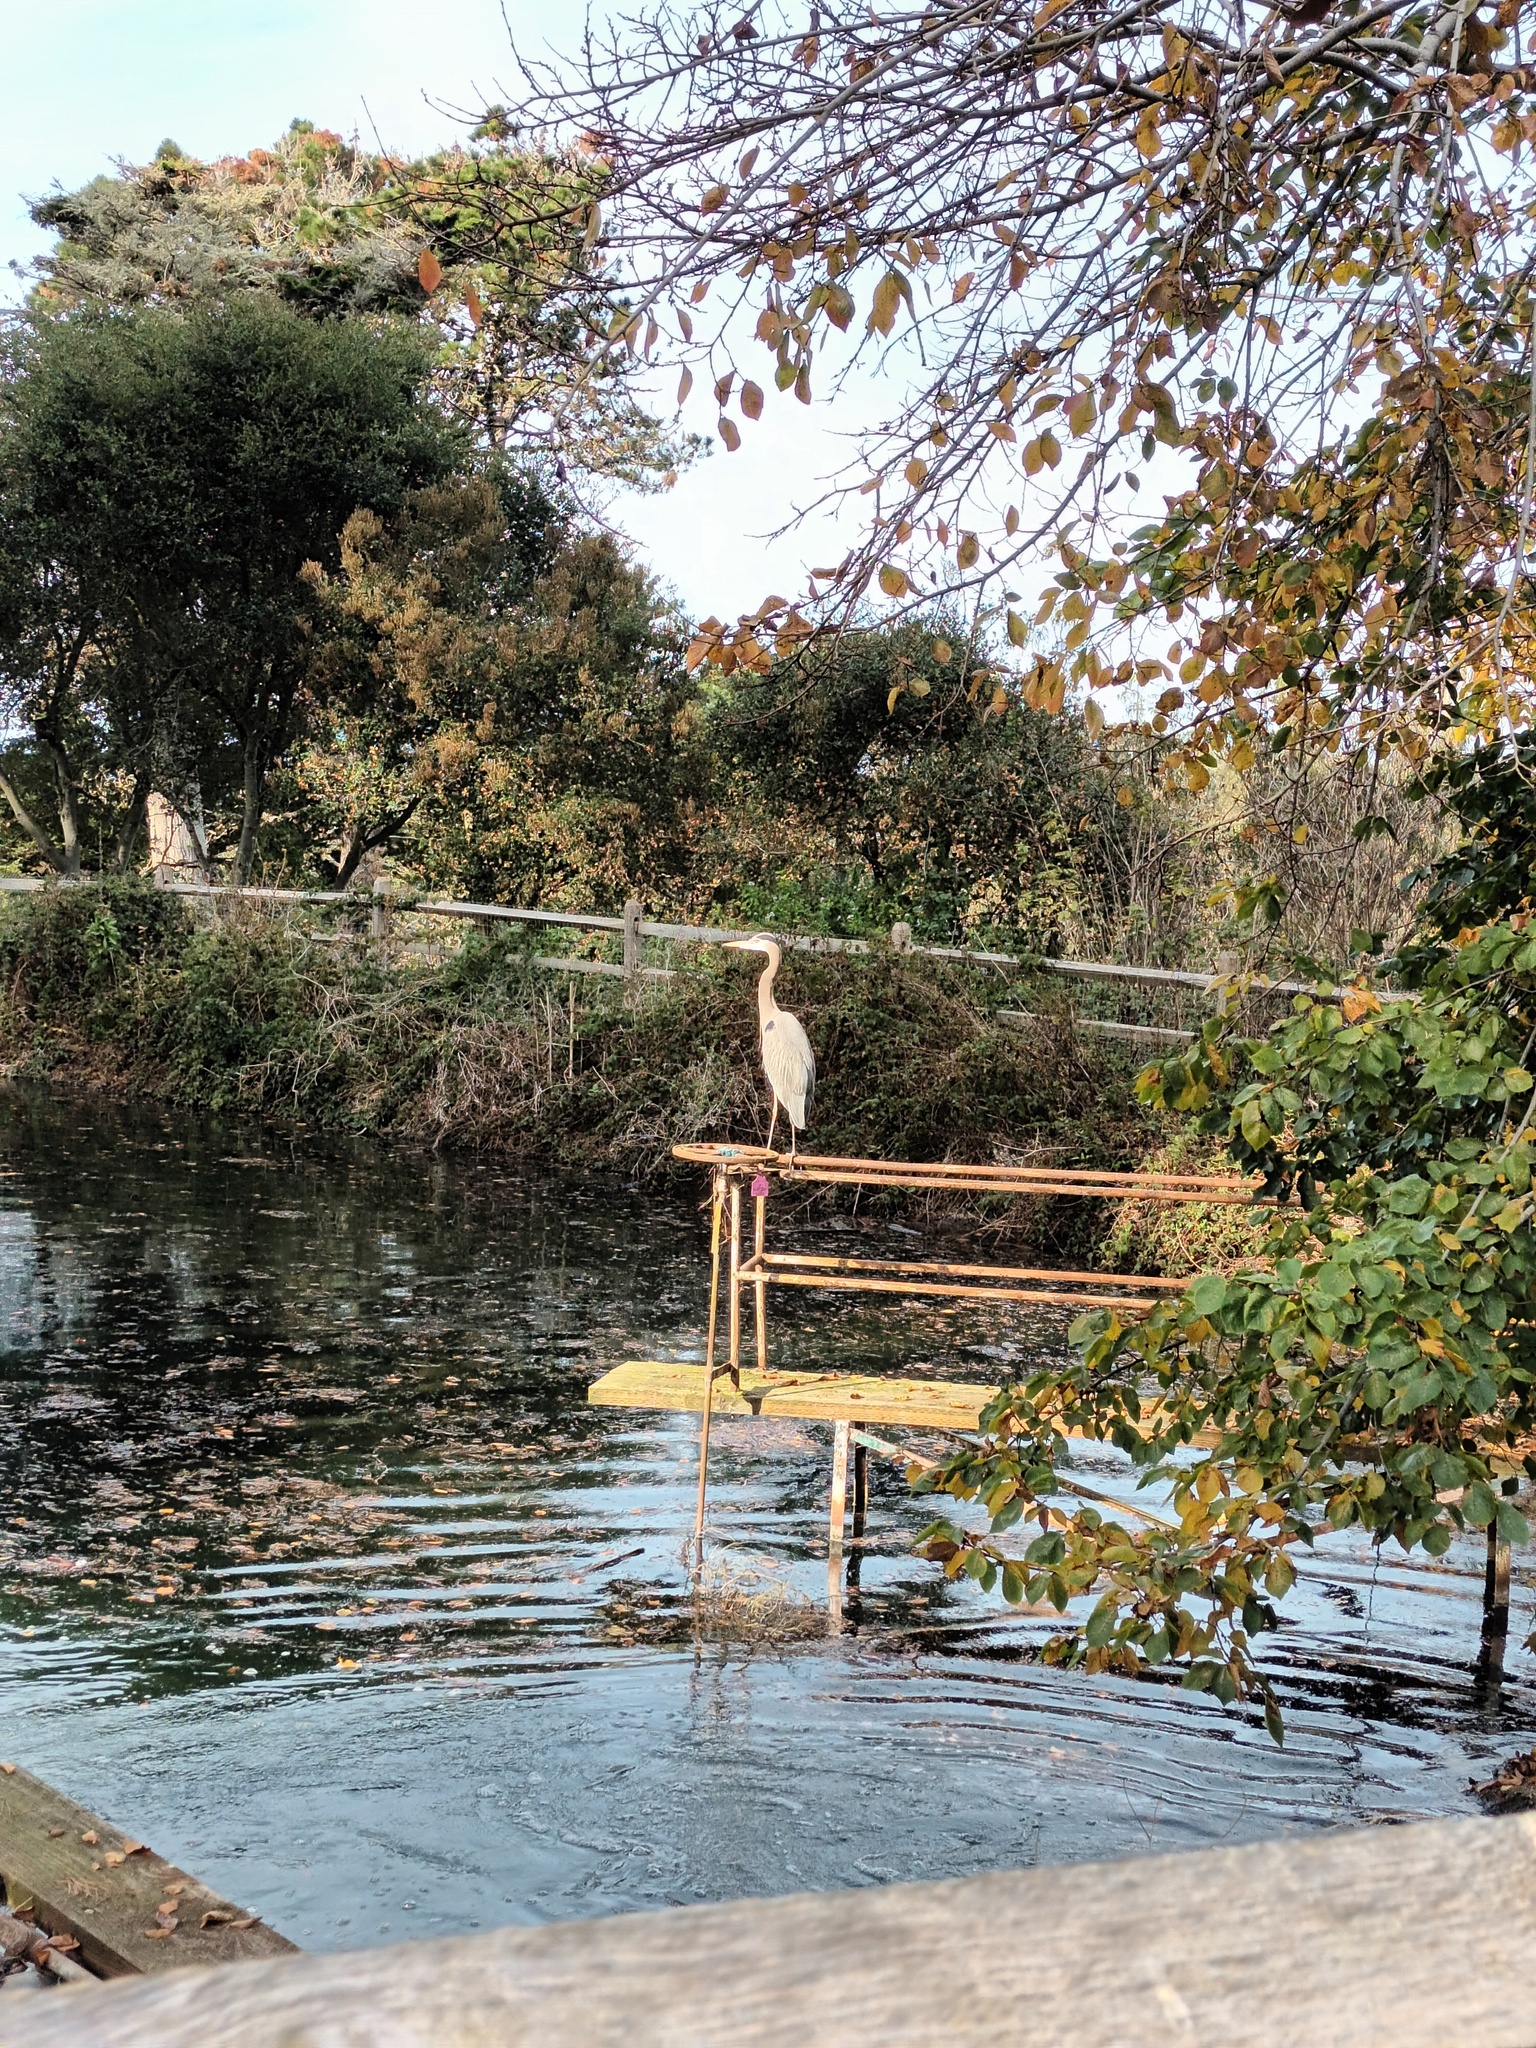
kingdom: Animalia
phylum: Chordata
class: Aves
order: Pelecaniformes
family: Ardeidae
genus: Ardea
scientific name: Ardea herodias
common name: Great blue heron
